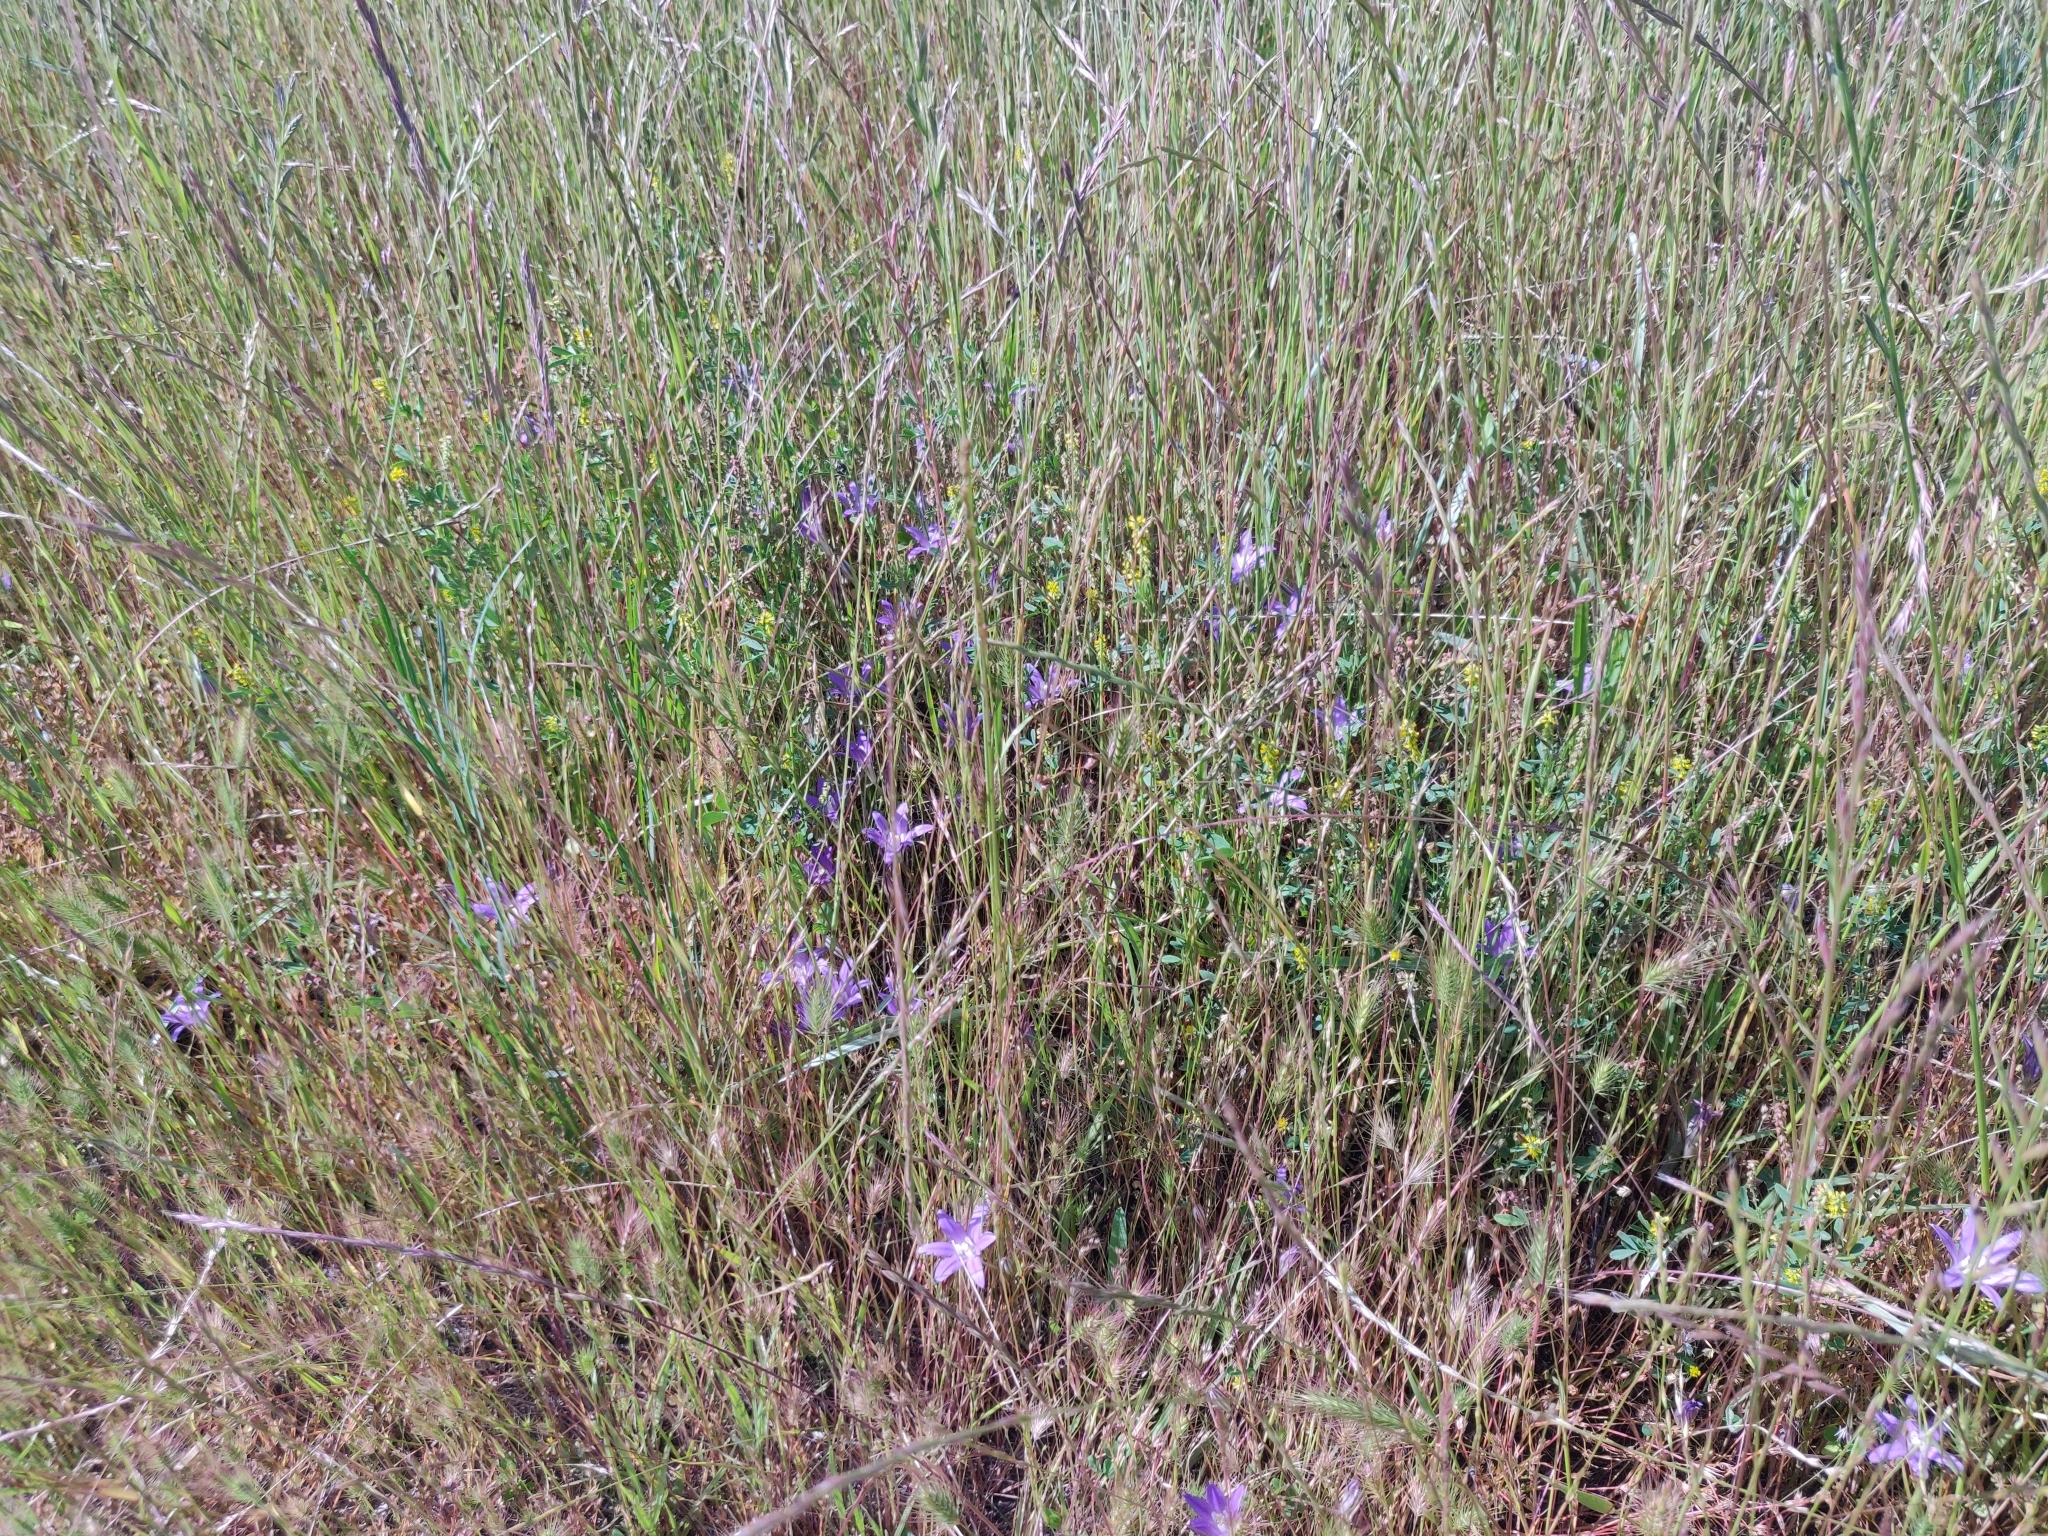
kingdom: Plantae
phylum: Tracheophyta
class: Liliopsida
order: Asparagales
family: Asparagaceae
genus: Brodiaea
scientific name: Brodiaea terrestris
